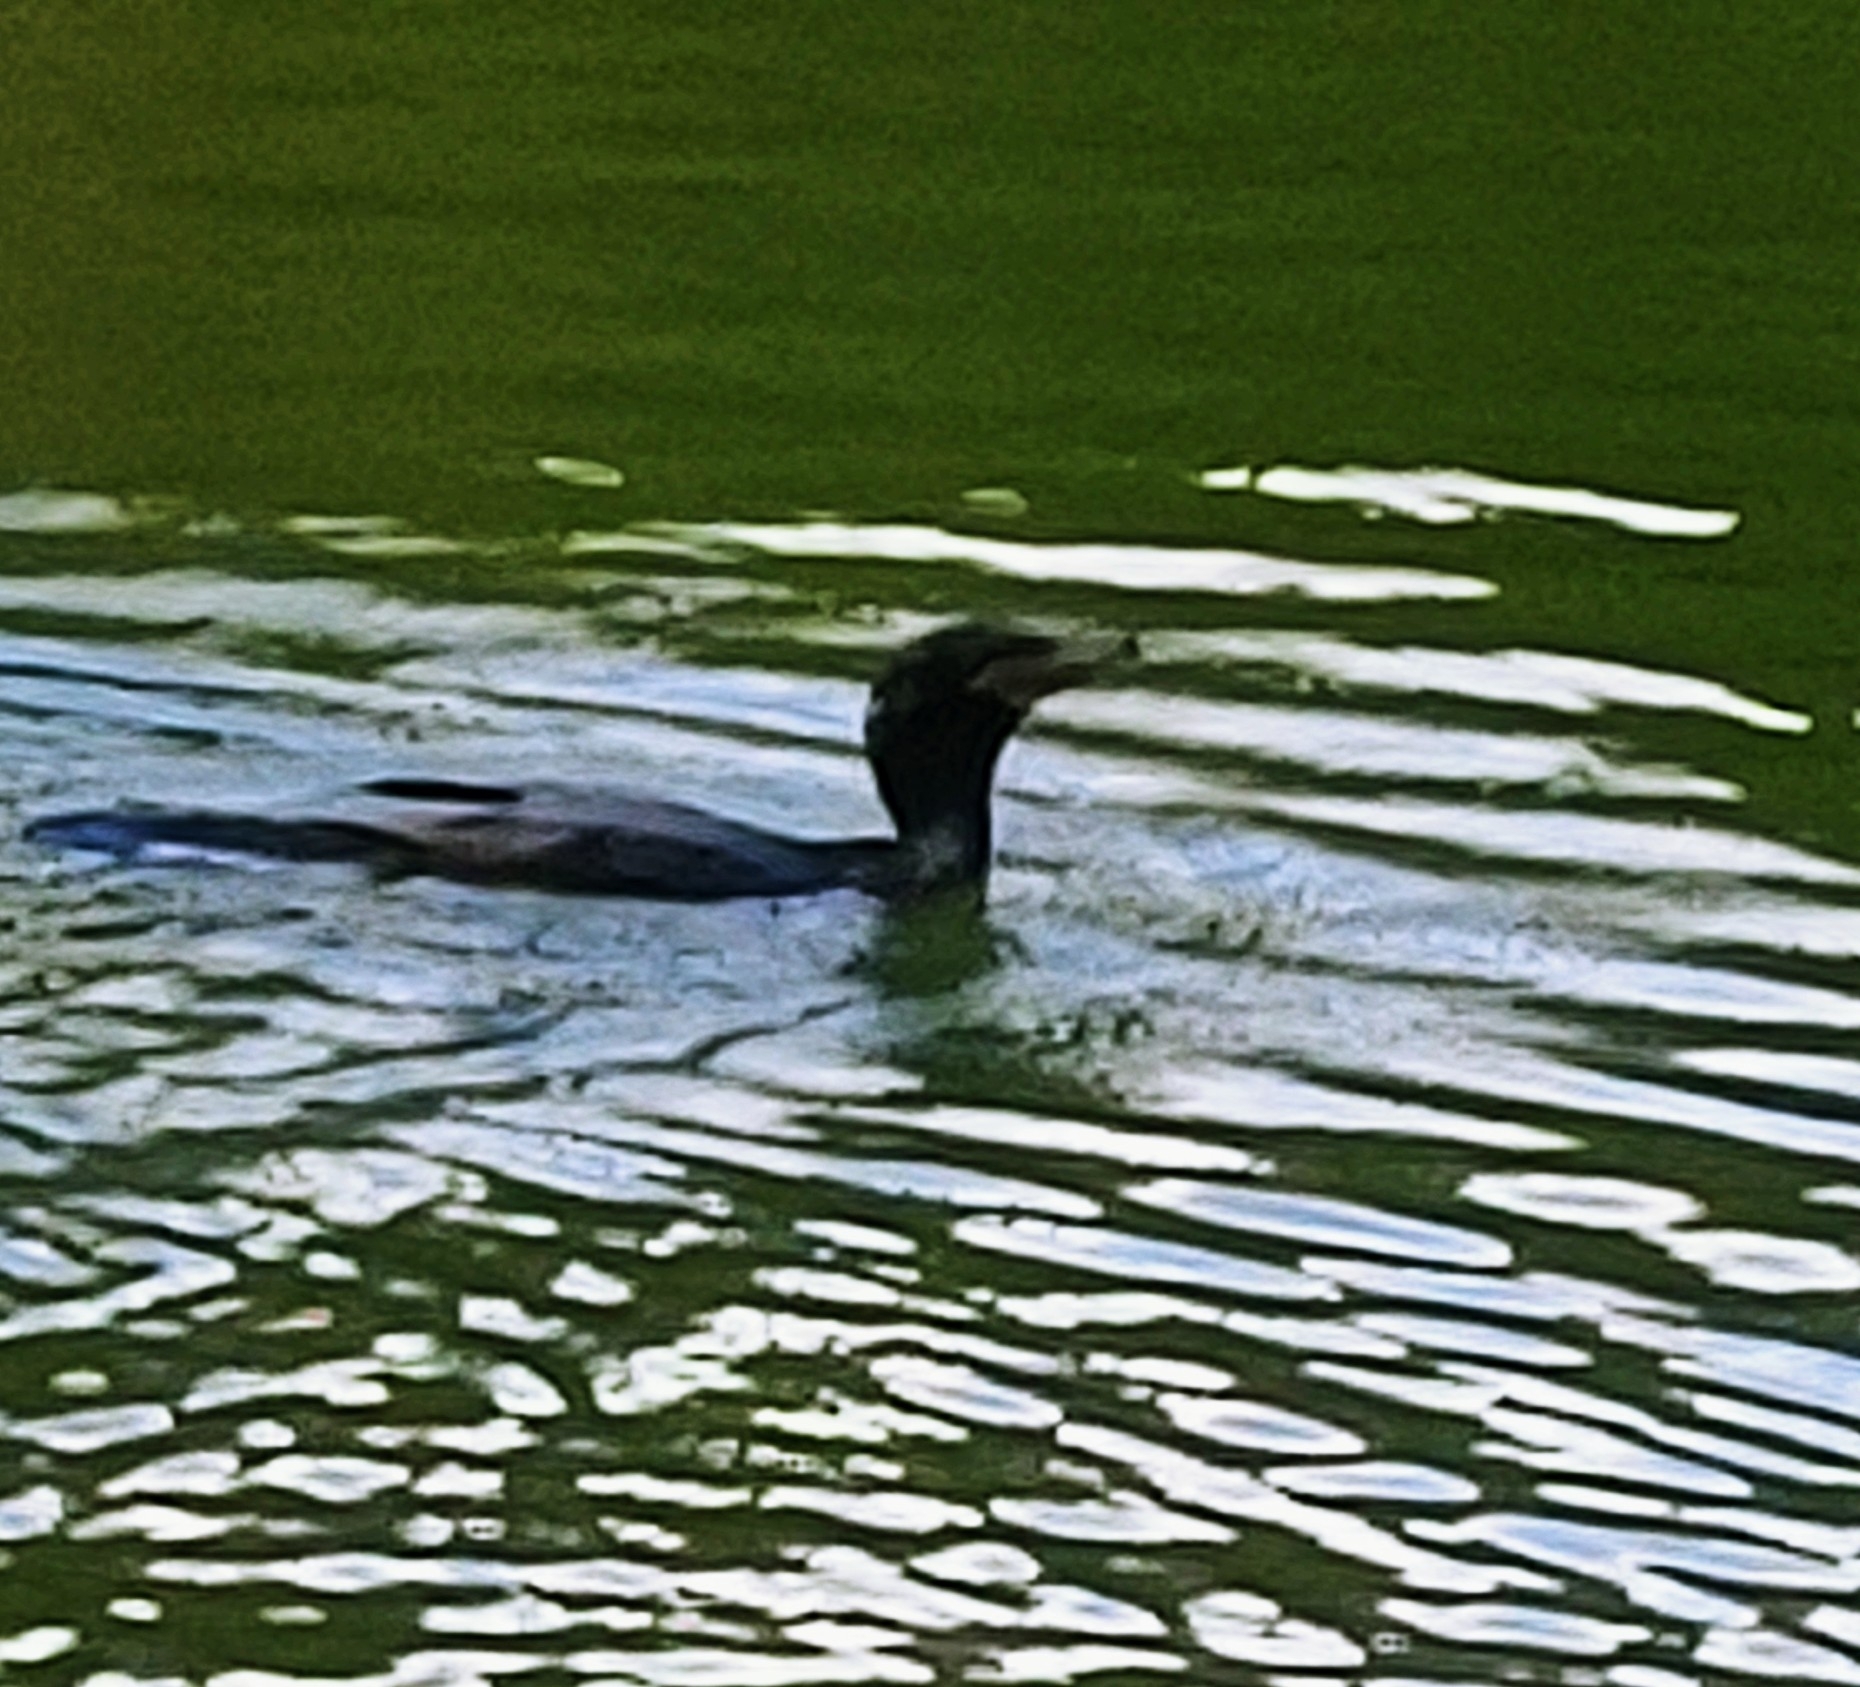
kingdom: Animalia
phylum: Chordata
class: Aves
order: Suliformes
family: Phalacrocoracidae
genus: Phalacrocorax
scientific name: Phalacrocorax brasilianus
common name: Neotropic cormorant
